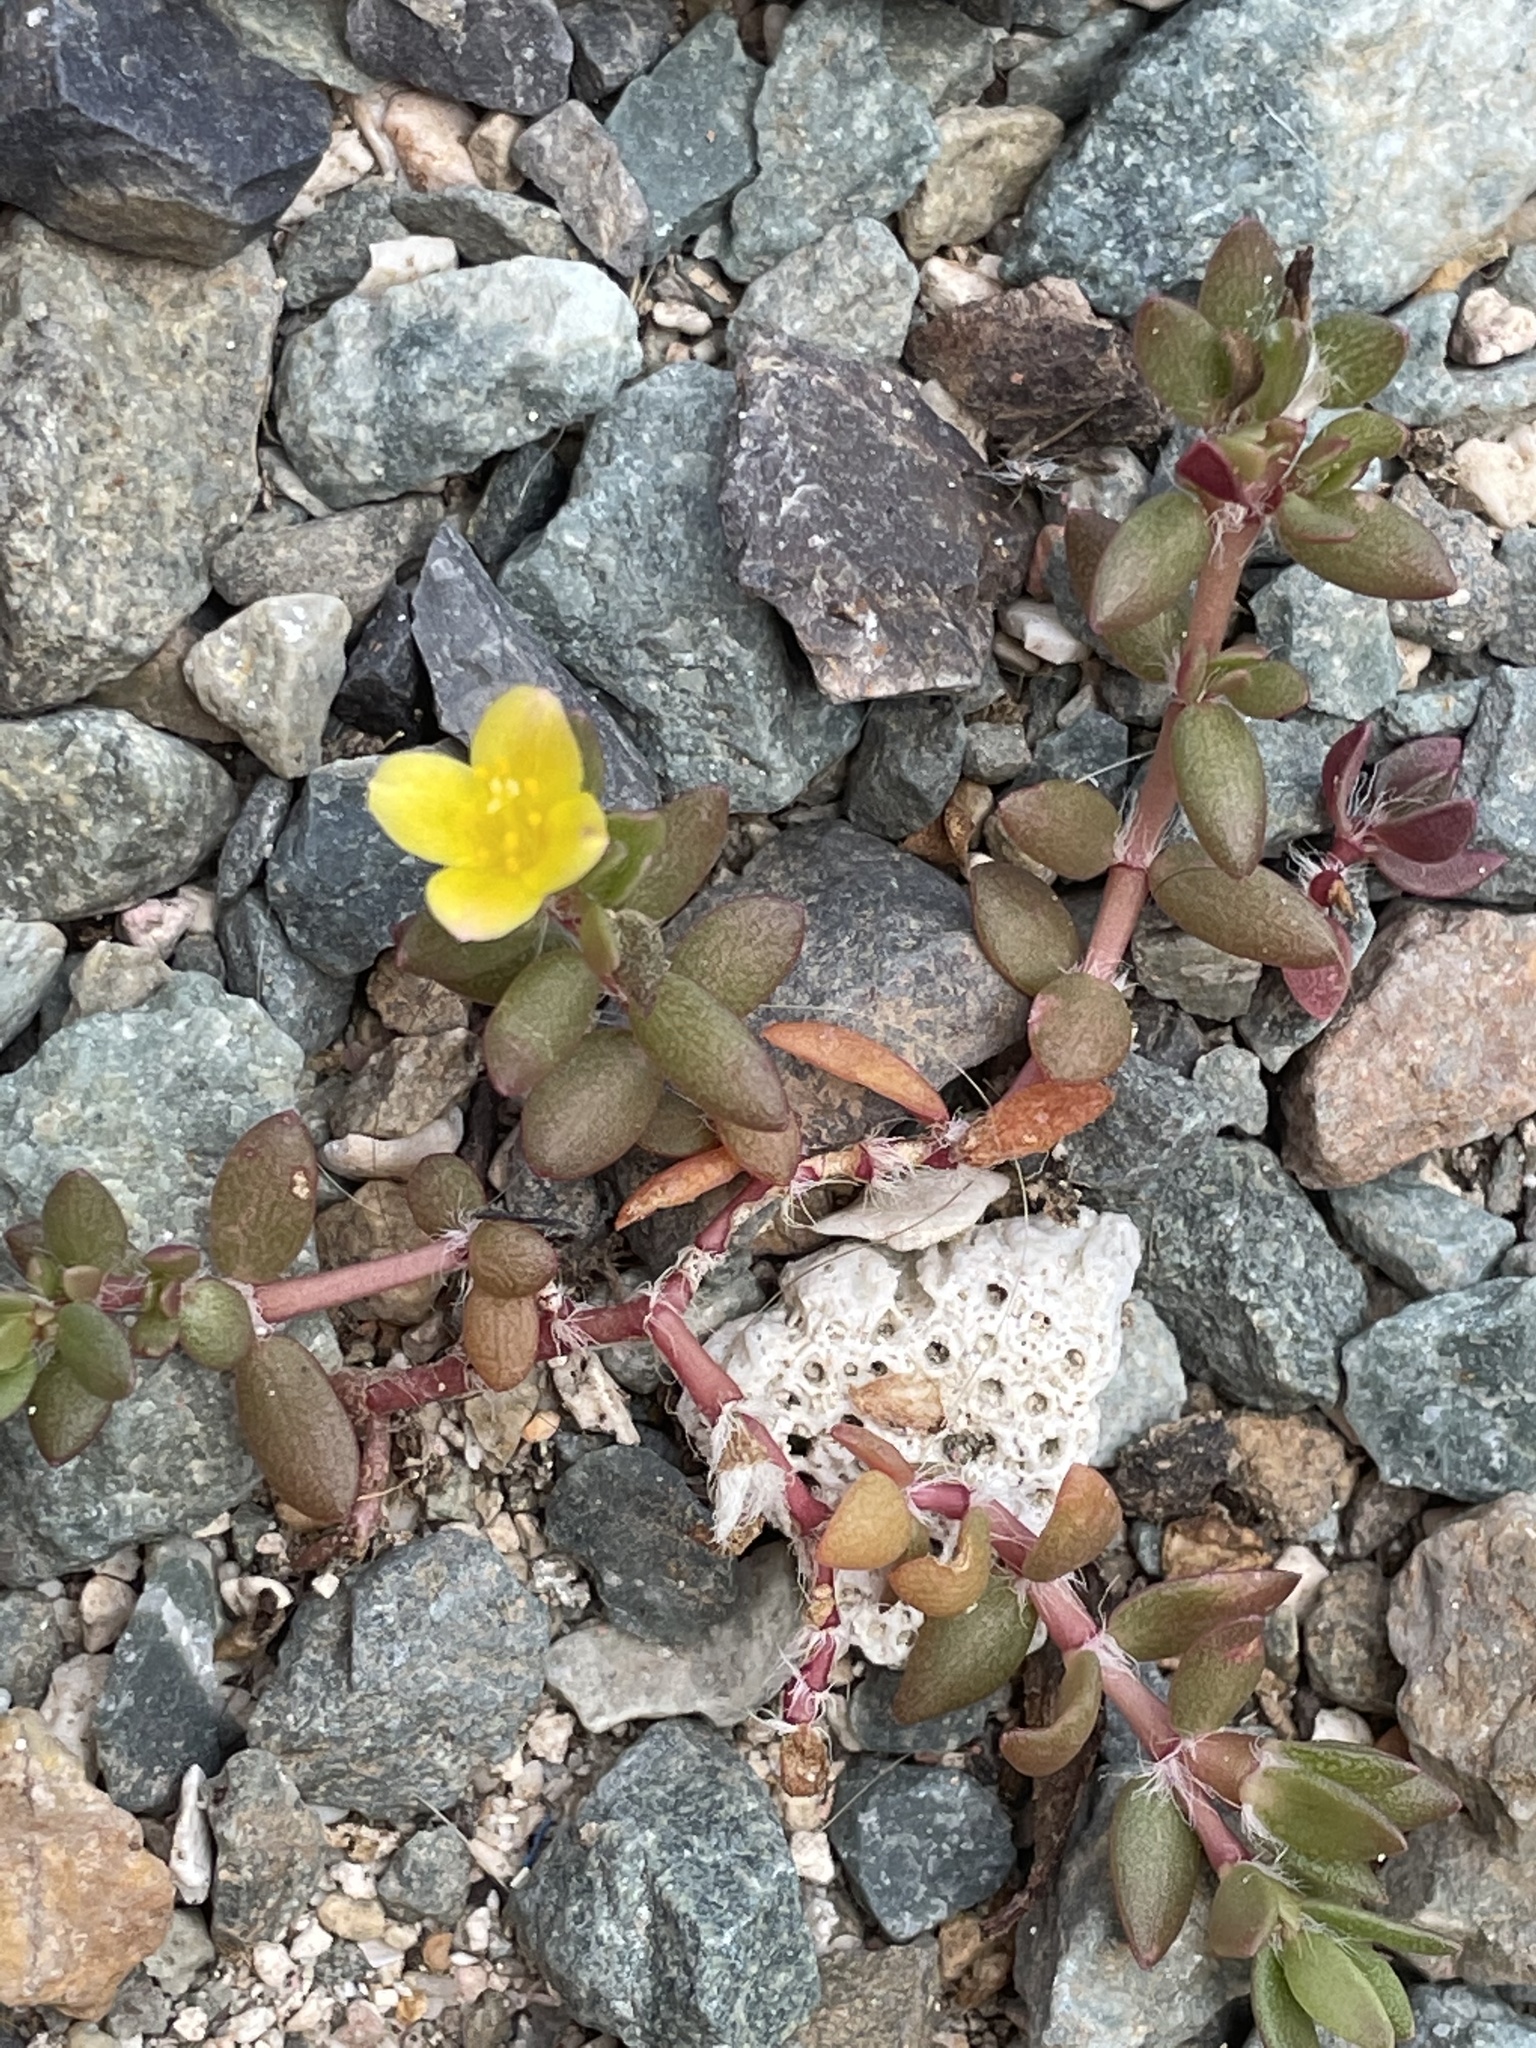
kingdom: Plantae
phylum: Tracheophyta
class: Magnoliopsida
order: Caryophyllales
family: Portulacaceae
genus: Portulaca
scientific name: Portulaca quadrifida
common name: Chickenweed
